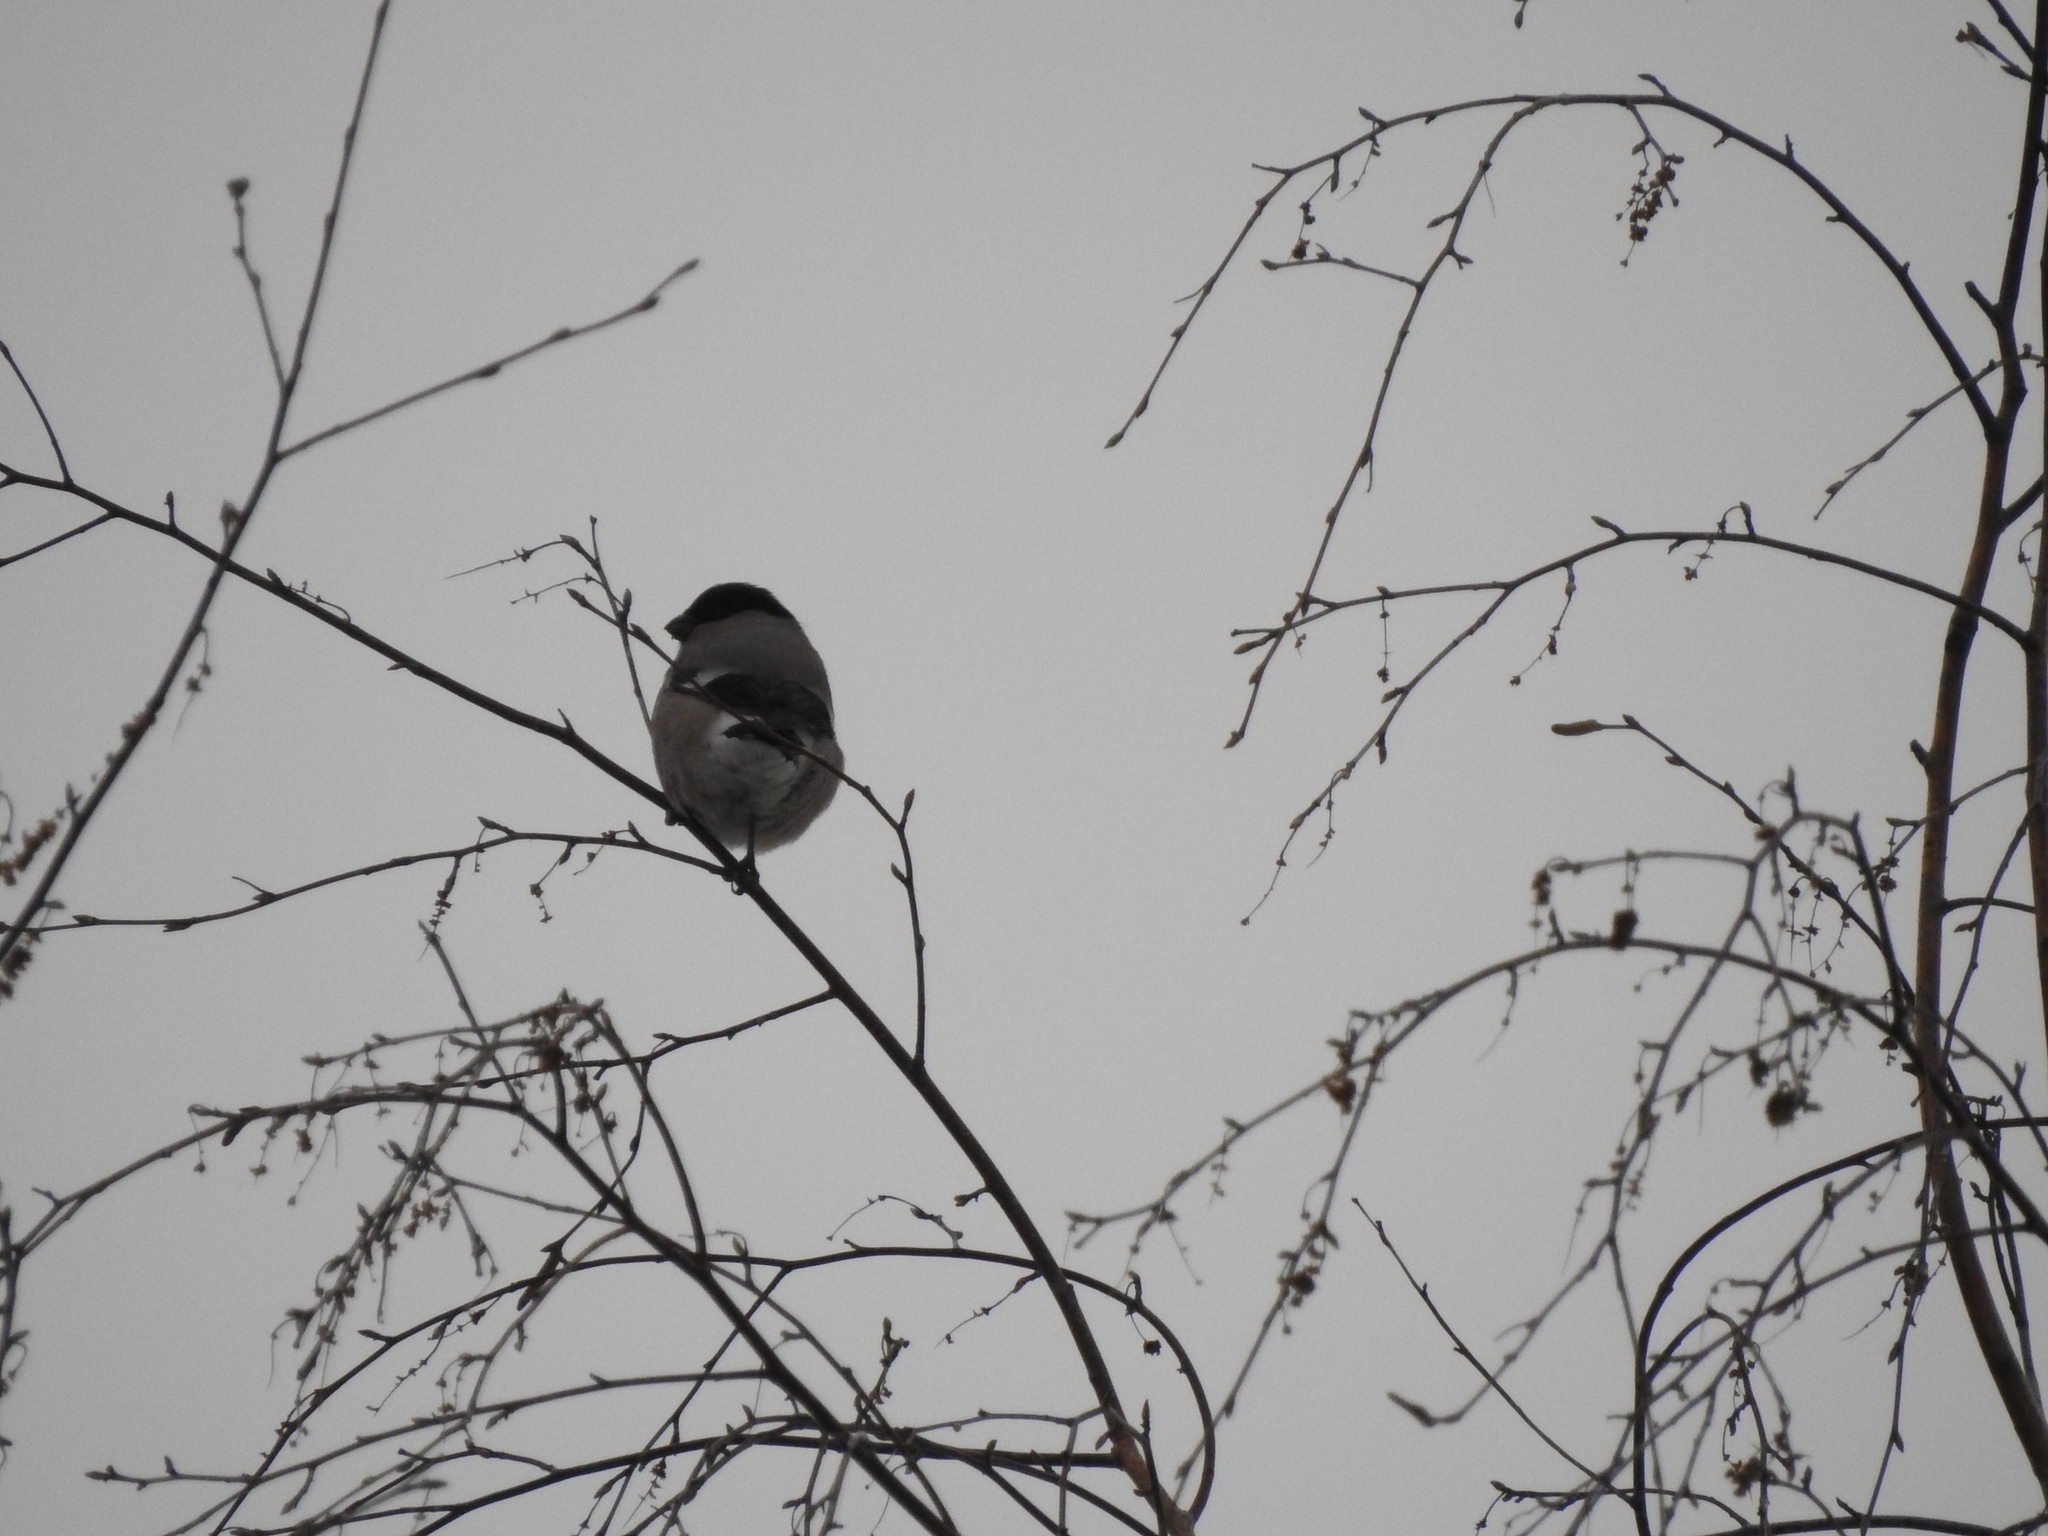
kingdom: Animalia
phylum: Chordata
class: Aves
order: Passeriformes
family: Fringillidae
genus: Pyrrhula
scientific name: Pyrrhula pyrrhula
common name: Eurasian bullfinch
